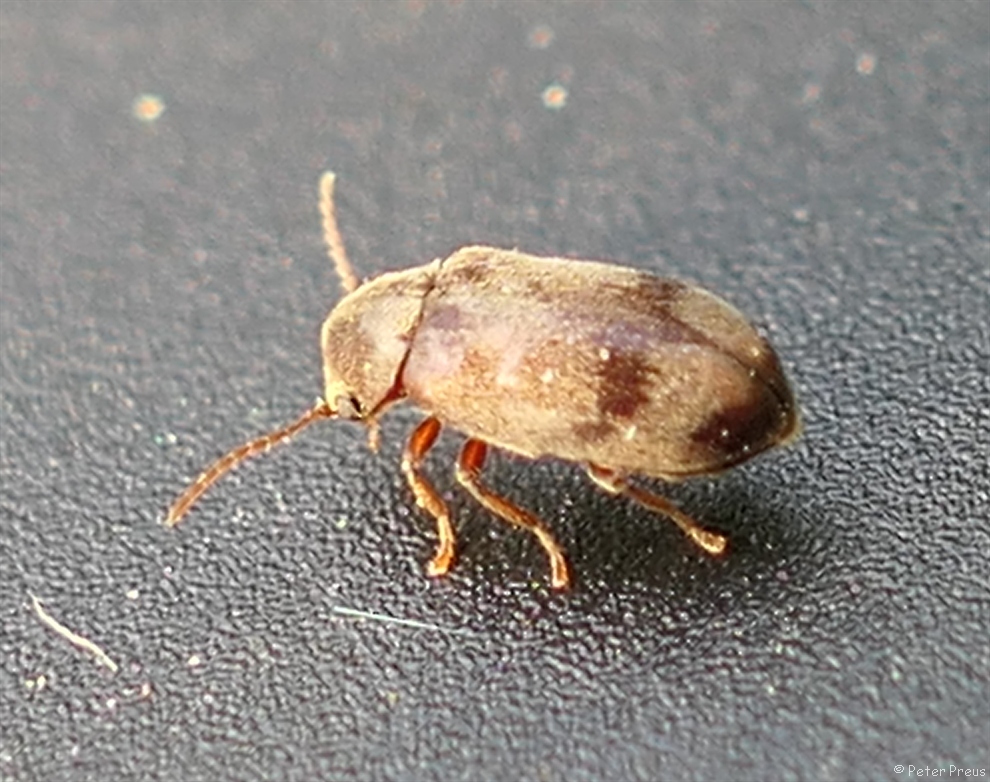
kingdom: Animalia
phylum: Arthropoda
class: Insecta
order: Coleoptera
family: Ptinidae
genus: Ochina
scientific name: Ochina ptinoides
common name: Ivy boring beetle
